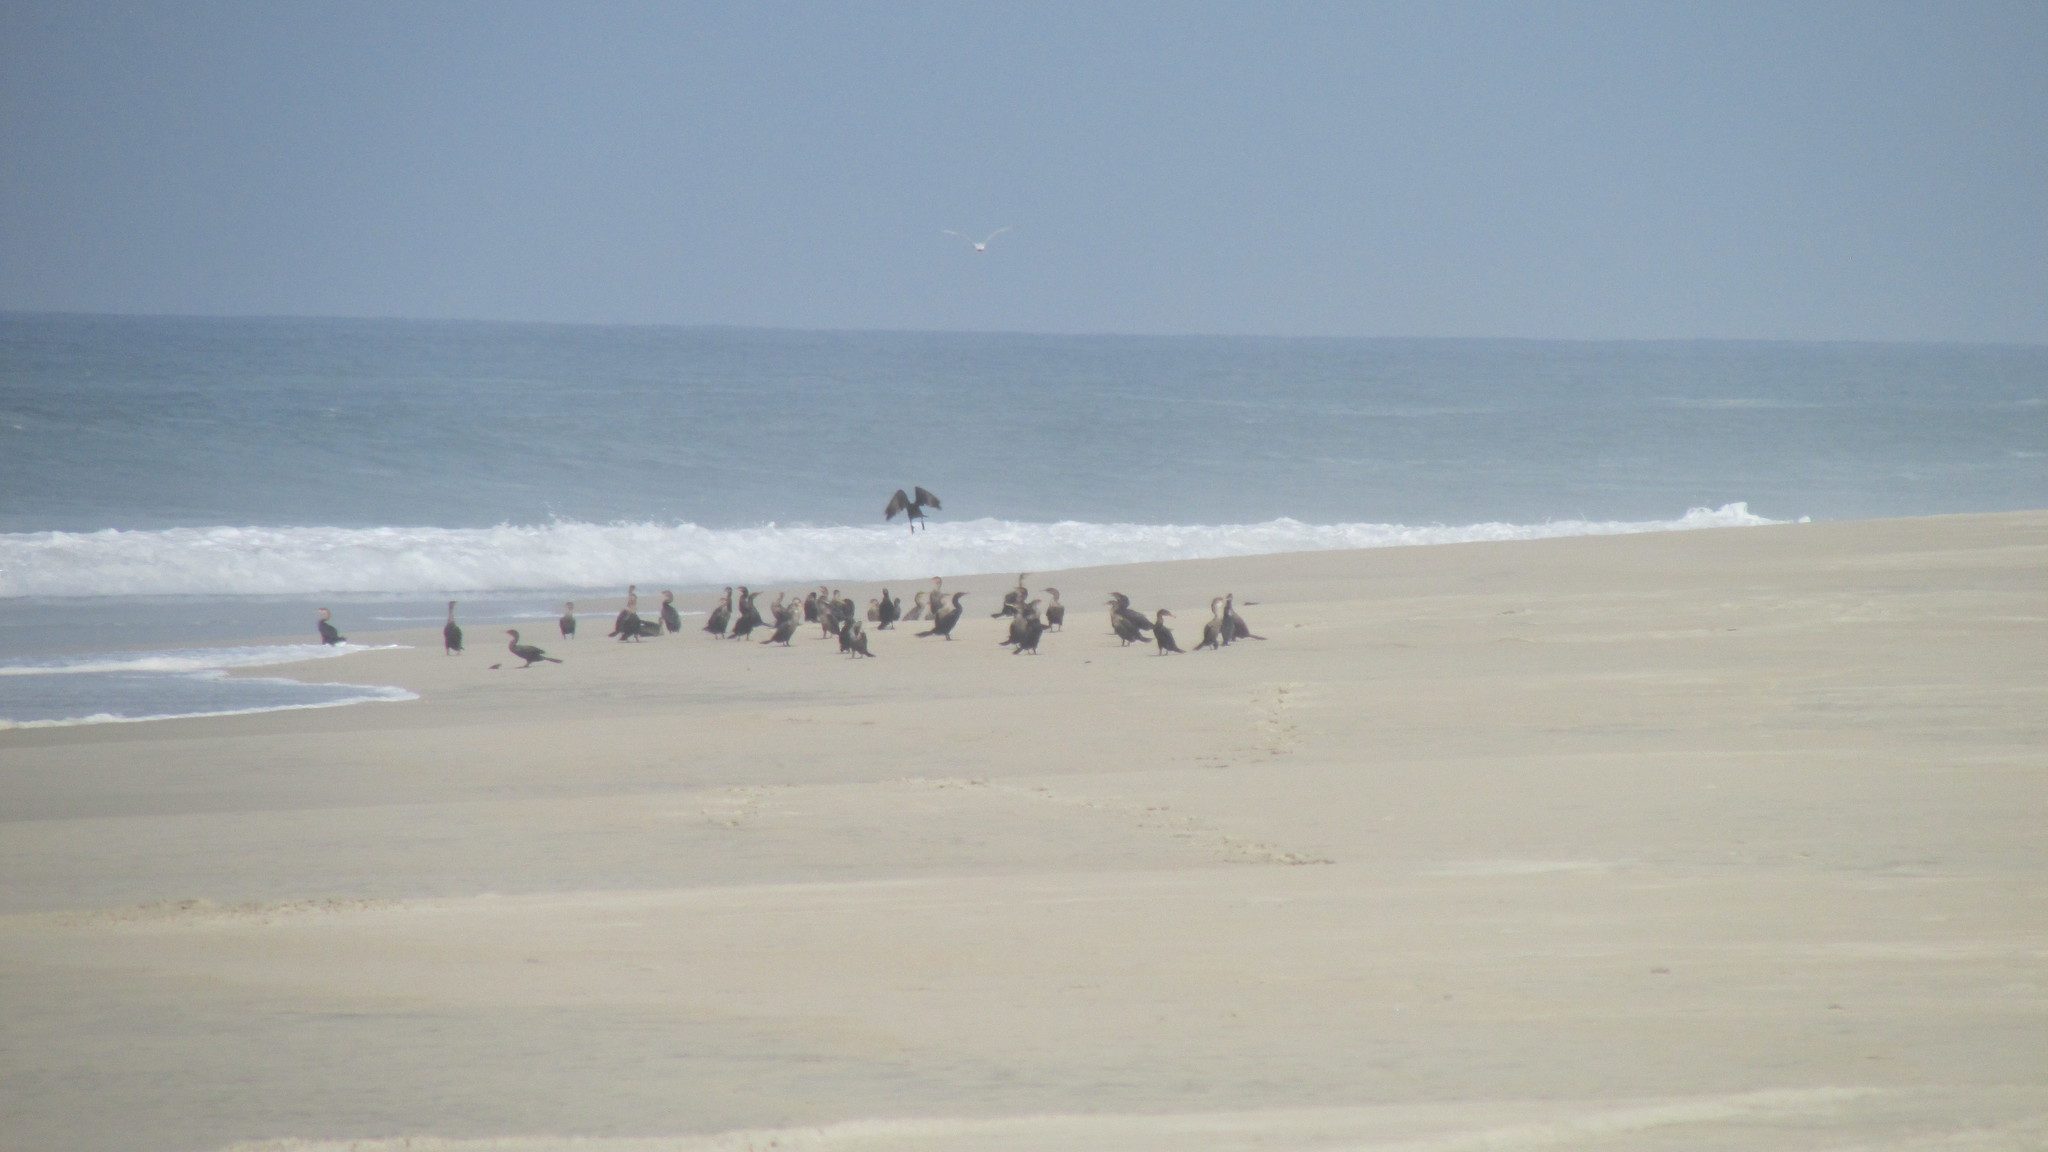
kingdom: Animalia
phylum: Chordata
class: Aves
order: Suliformes
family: Phalacrocoracidae
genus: Phalacrocorax
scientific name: Phalacrocorax brasilianus
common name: Neotropic cormorant
